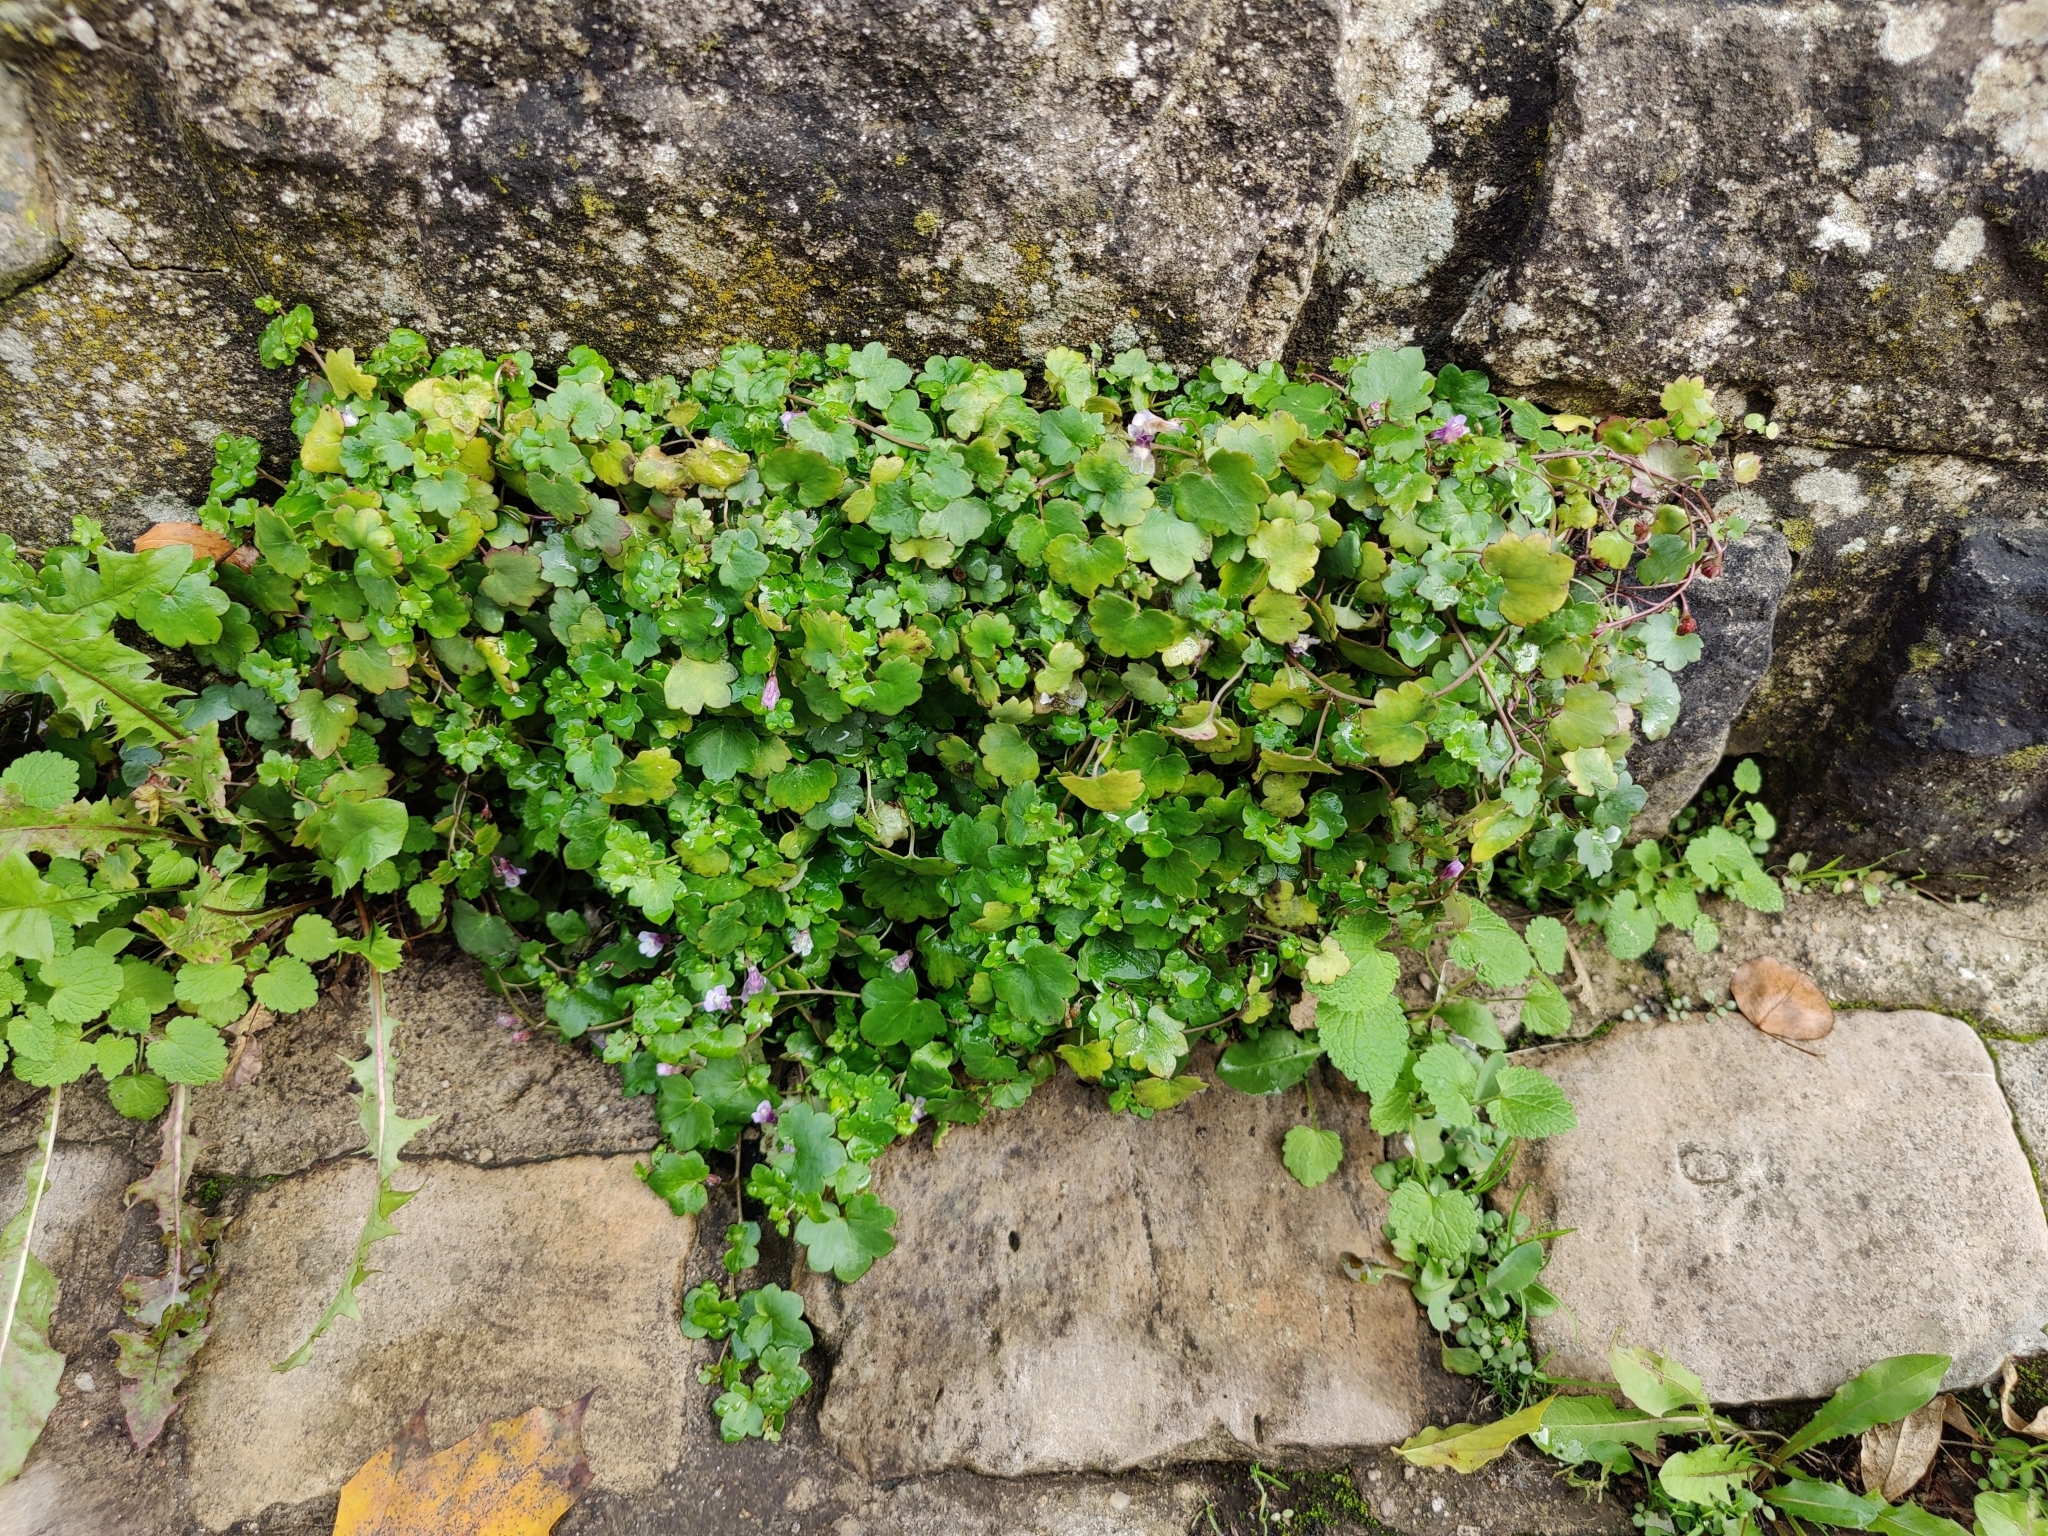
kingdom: Plantae
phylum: Tracheophyta
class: Magnoliopsida
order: Lamiales
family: Plantaginaceae
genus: Cymbalaria
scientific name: Cymbalaria muralis
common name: Ivy-leaved toadflax
